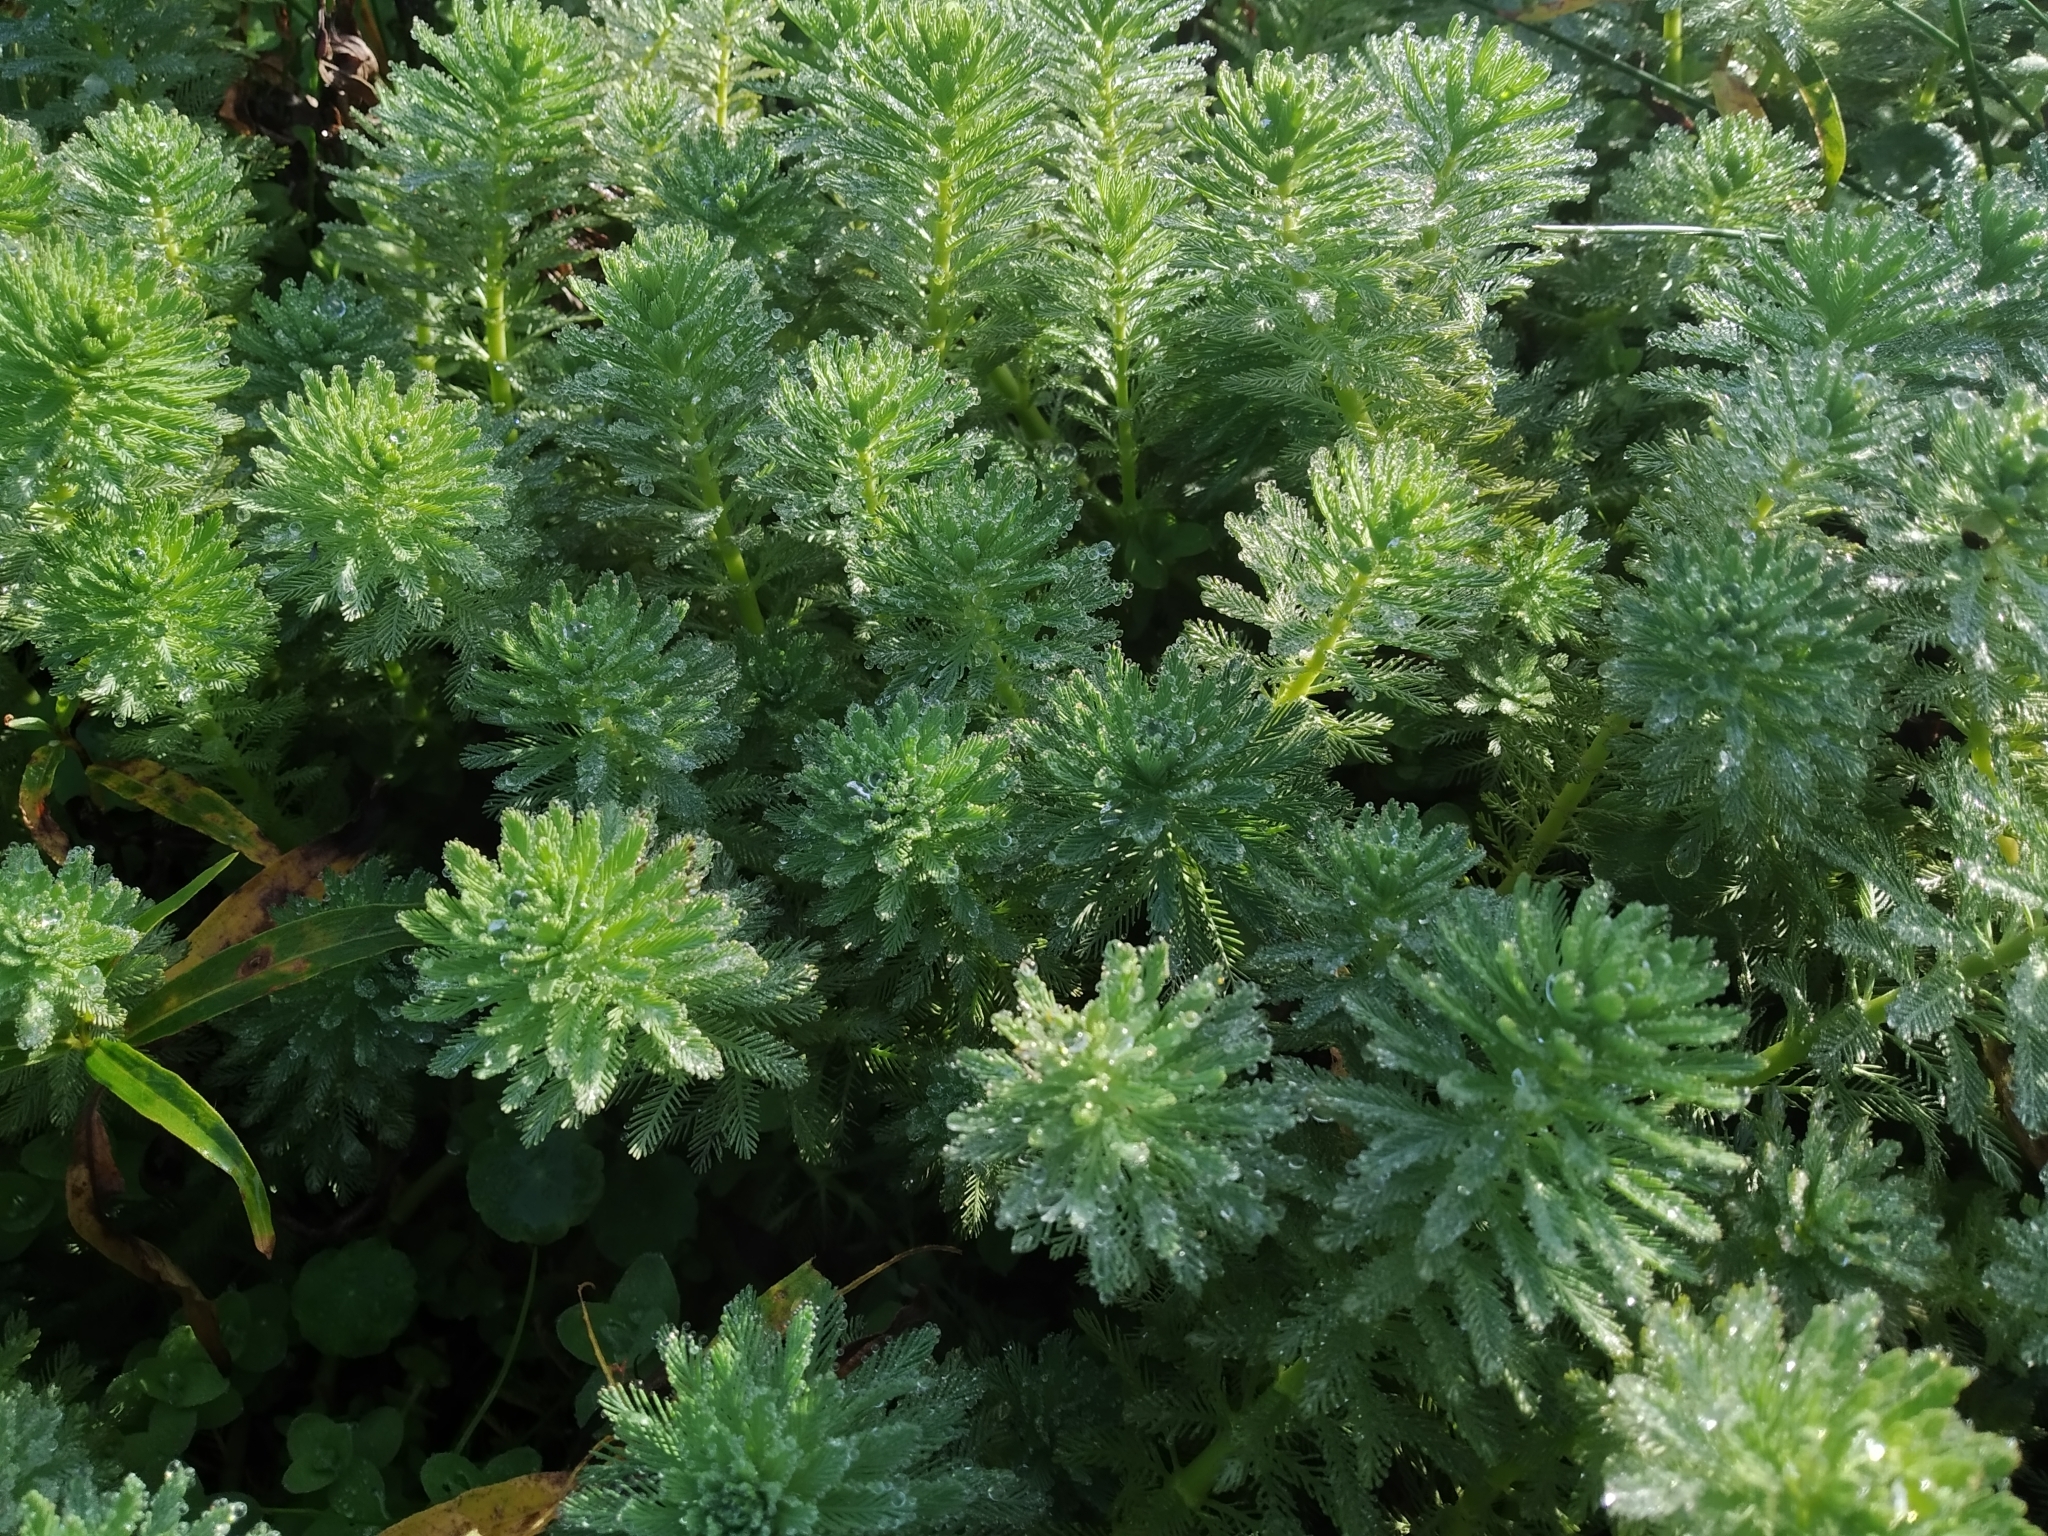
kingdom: Plantae
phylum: Tracheophyta
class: Magnoliopsida
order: Saxifragales
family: Haloragaceae
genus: Myriophyllum
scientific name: Myriophyllum aquaticum
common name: Parrot's feather
